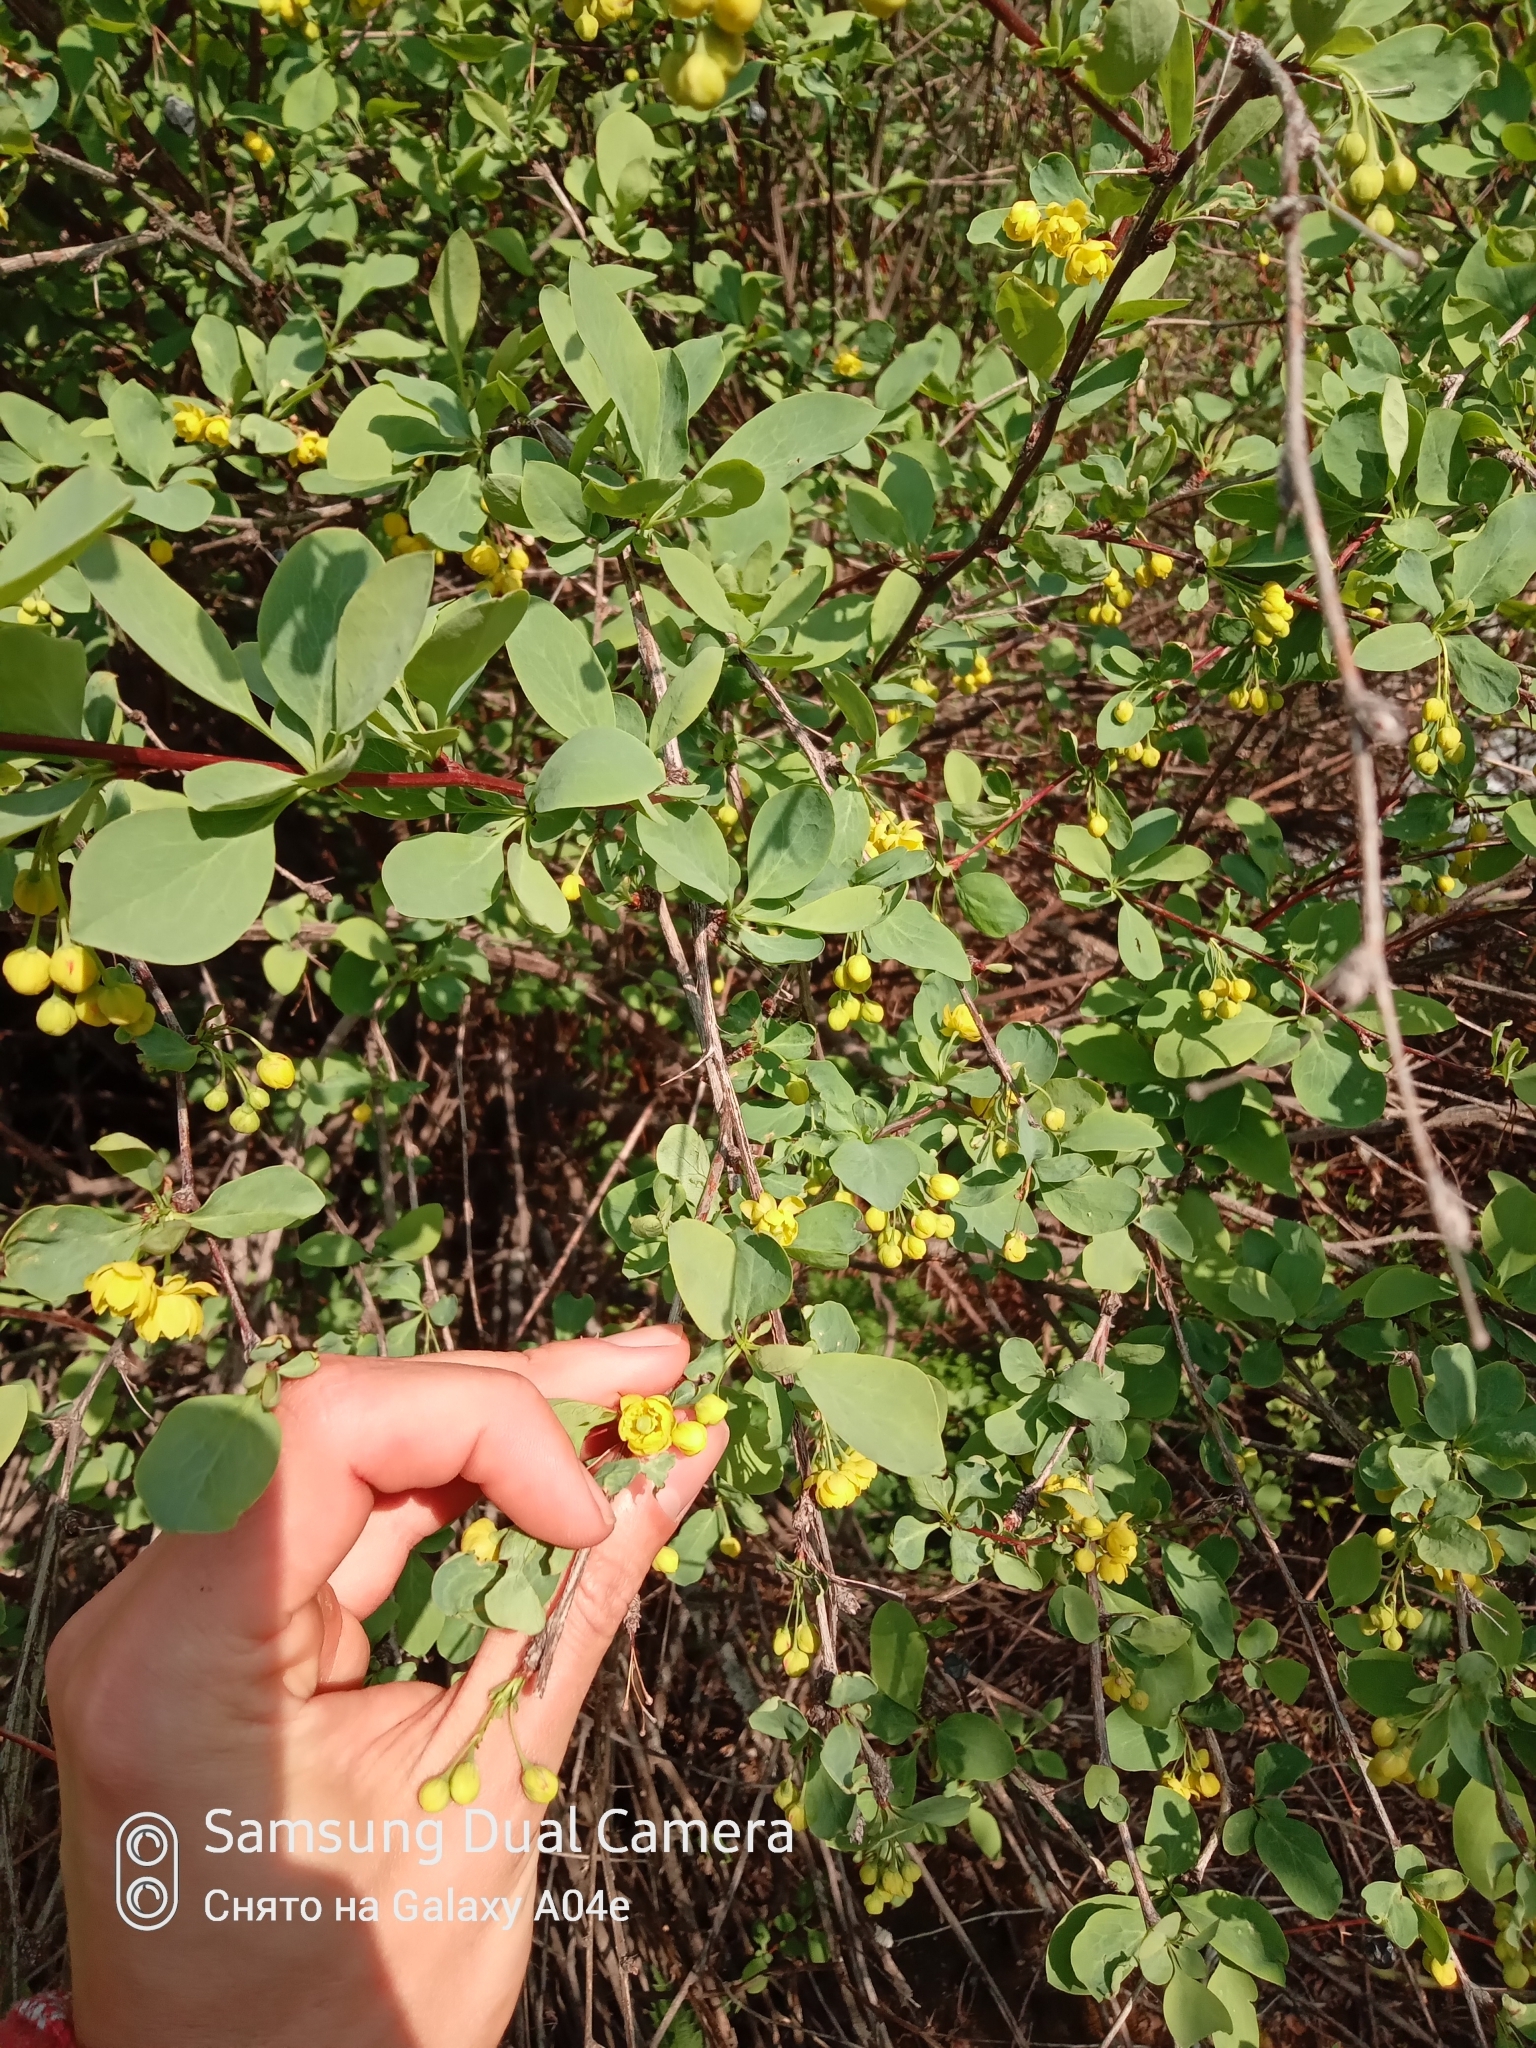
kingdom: Plantae
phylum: Tracheophyta
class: Magnoliopsida
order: Ranunculales
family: Berberidaceae
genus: Berberis
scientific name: Berberis heteropoda
